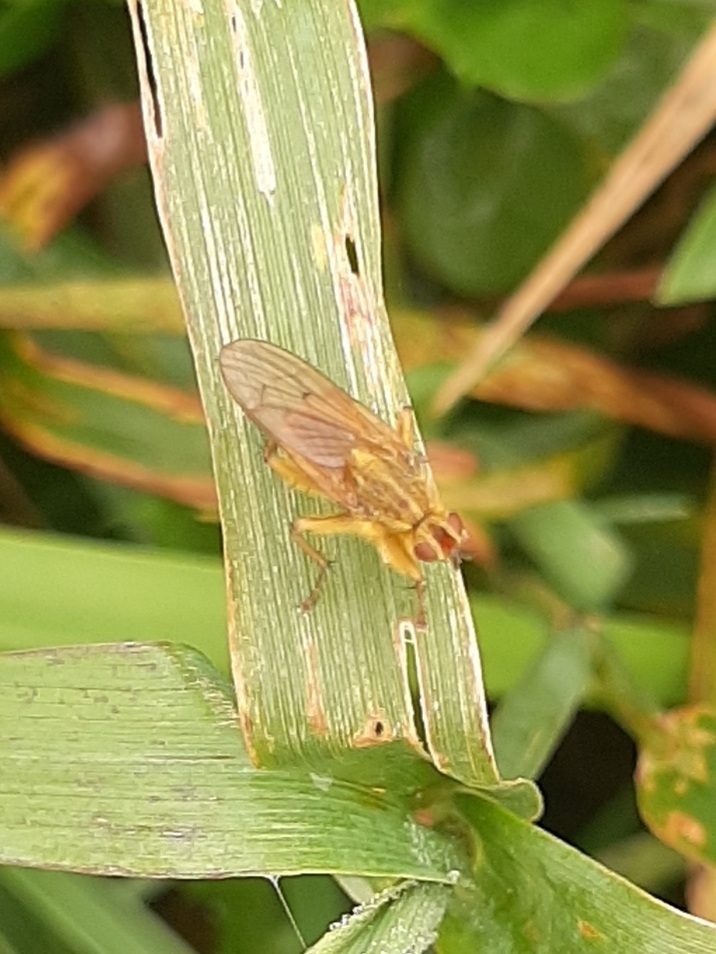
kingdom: Animalia
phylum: Arthropoda
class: Insecta
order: Diptera
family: Scathophagidae
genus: Scathophaga
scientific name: Scathophaga stercoraria
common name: Yellow dung fly
